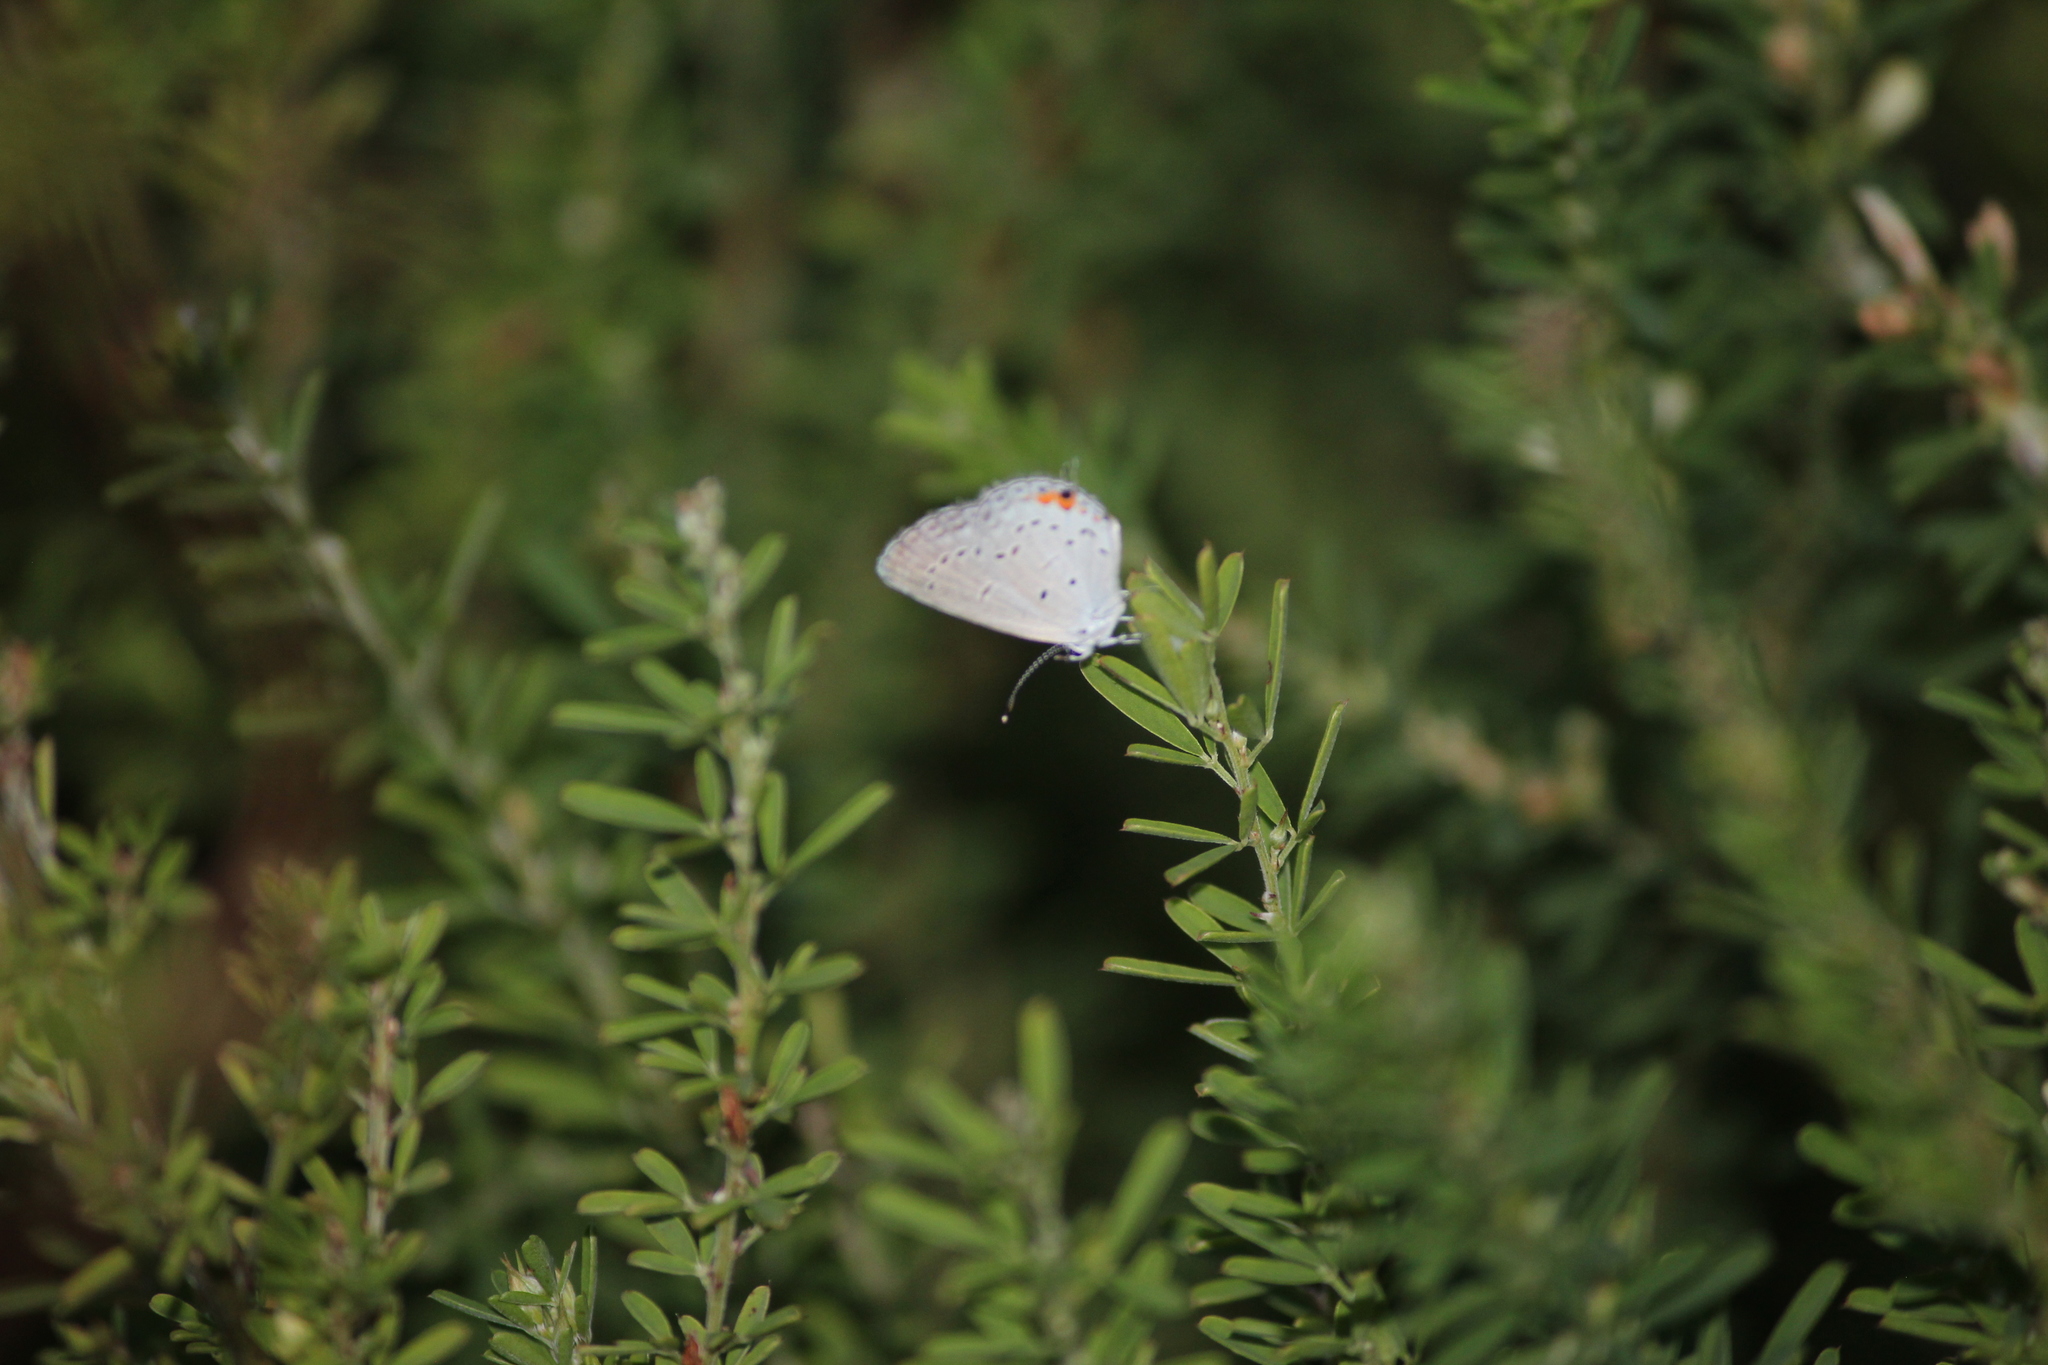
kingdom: Animalia
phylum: Arthropoda
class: Insecta
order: Lepidoptera
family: Lycaenidae
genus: Elkalyce
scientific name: Elkalyce comyntas
